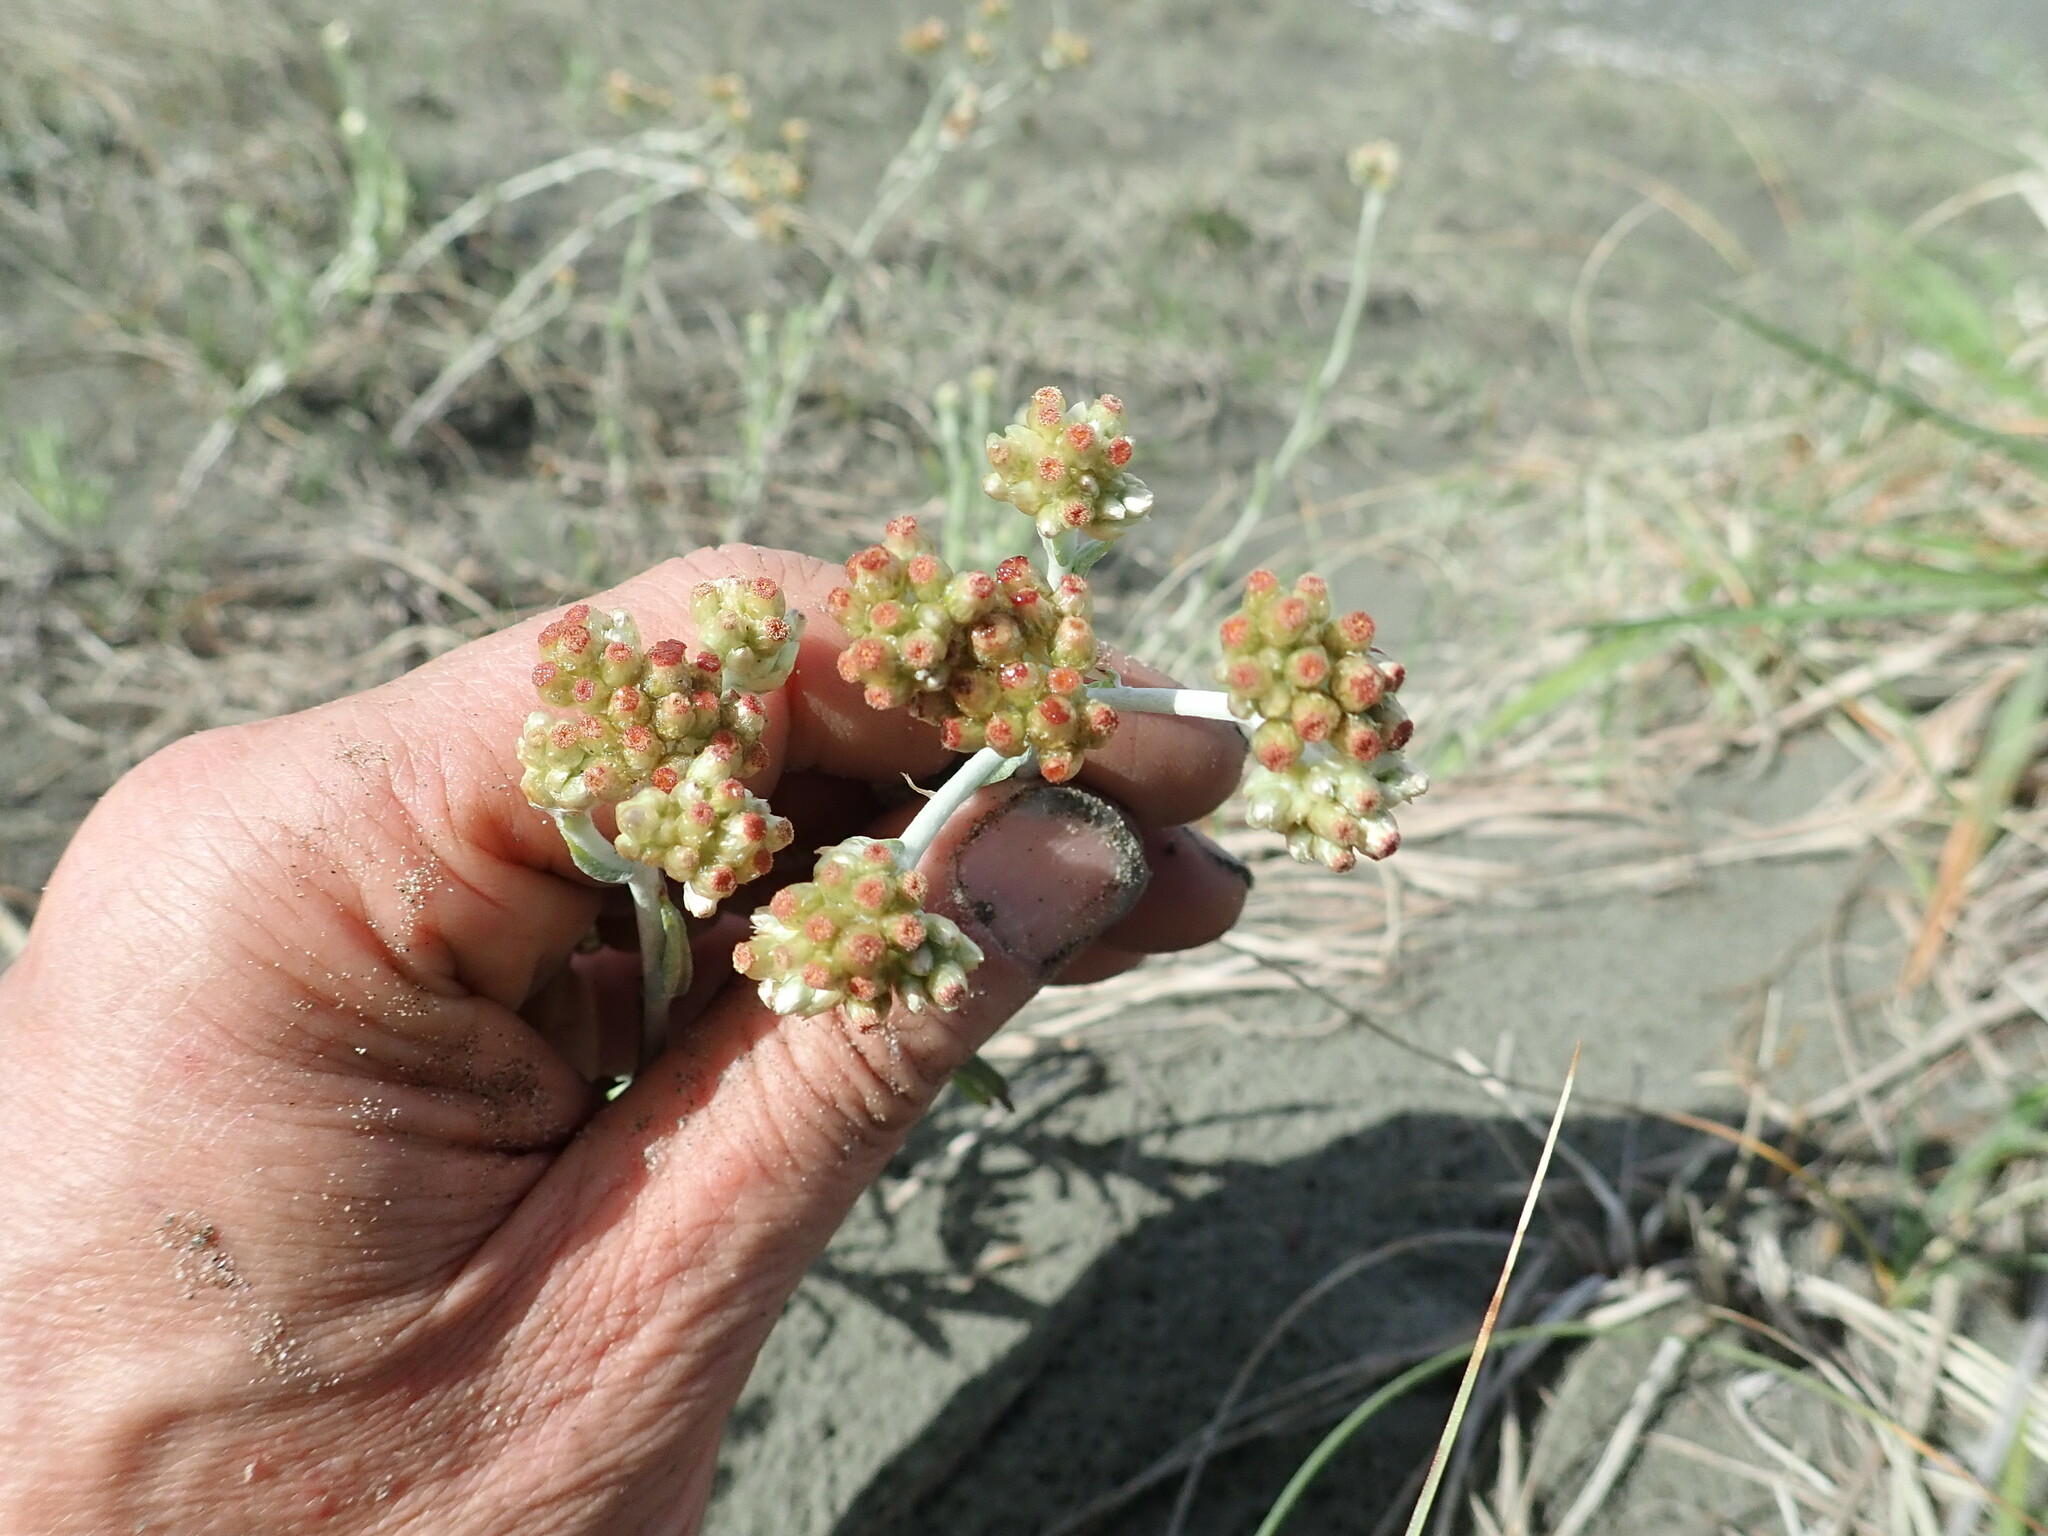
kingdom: Plantae
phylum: Tracheophyta
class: Magnoliopsida
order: Asterales
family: Asteraceae
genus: Helichrysum
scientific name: Helichrysum luteoalbum
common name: Daisy
